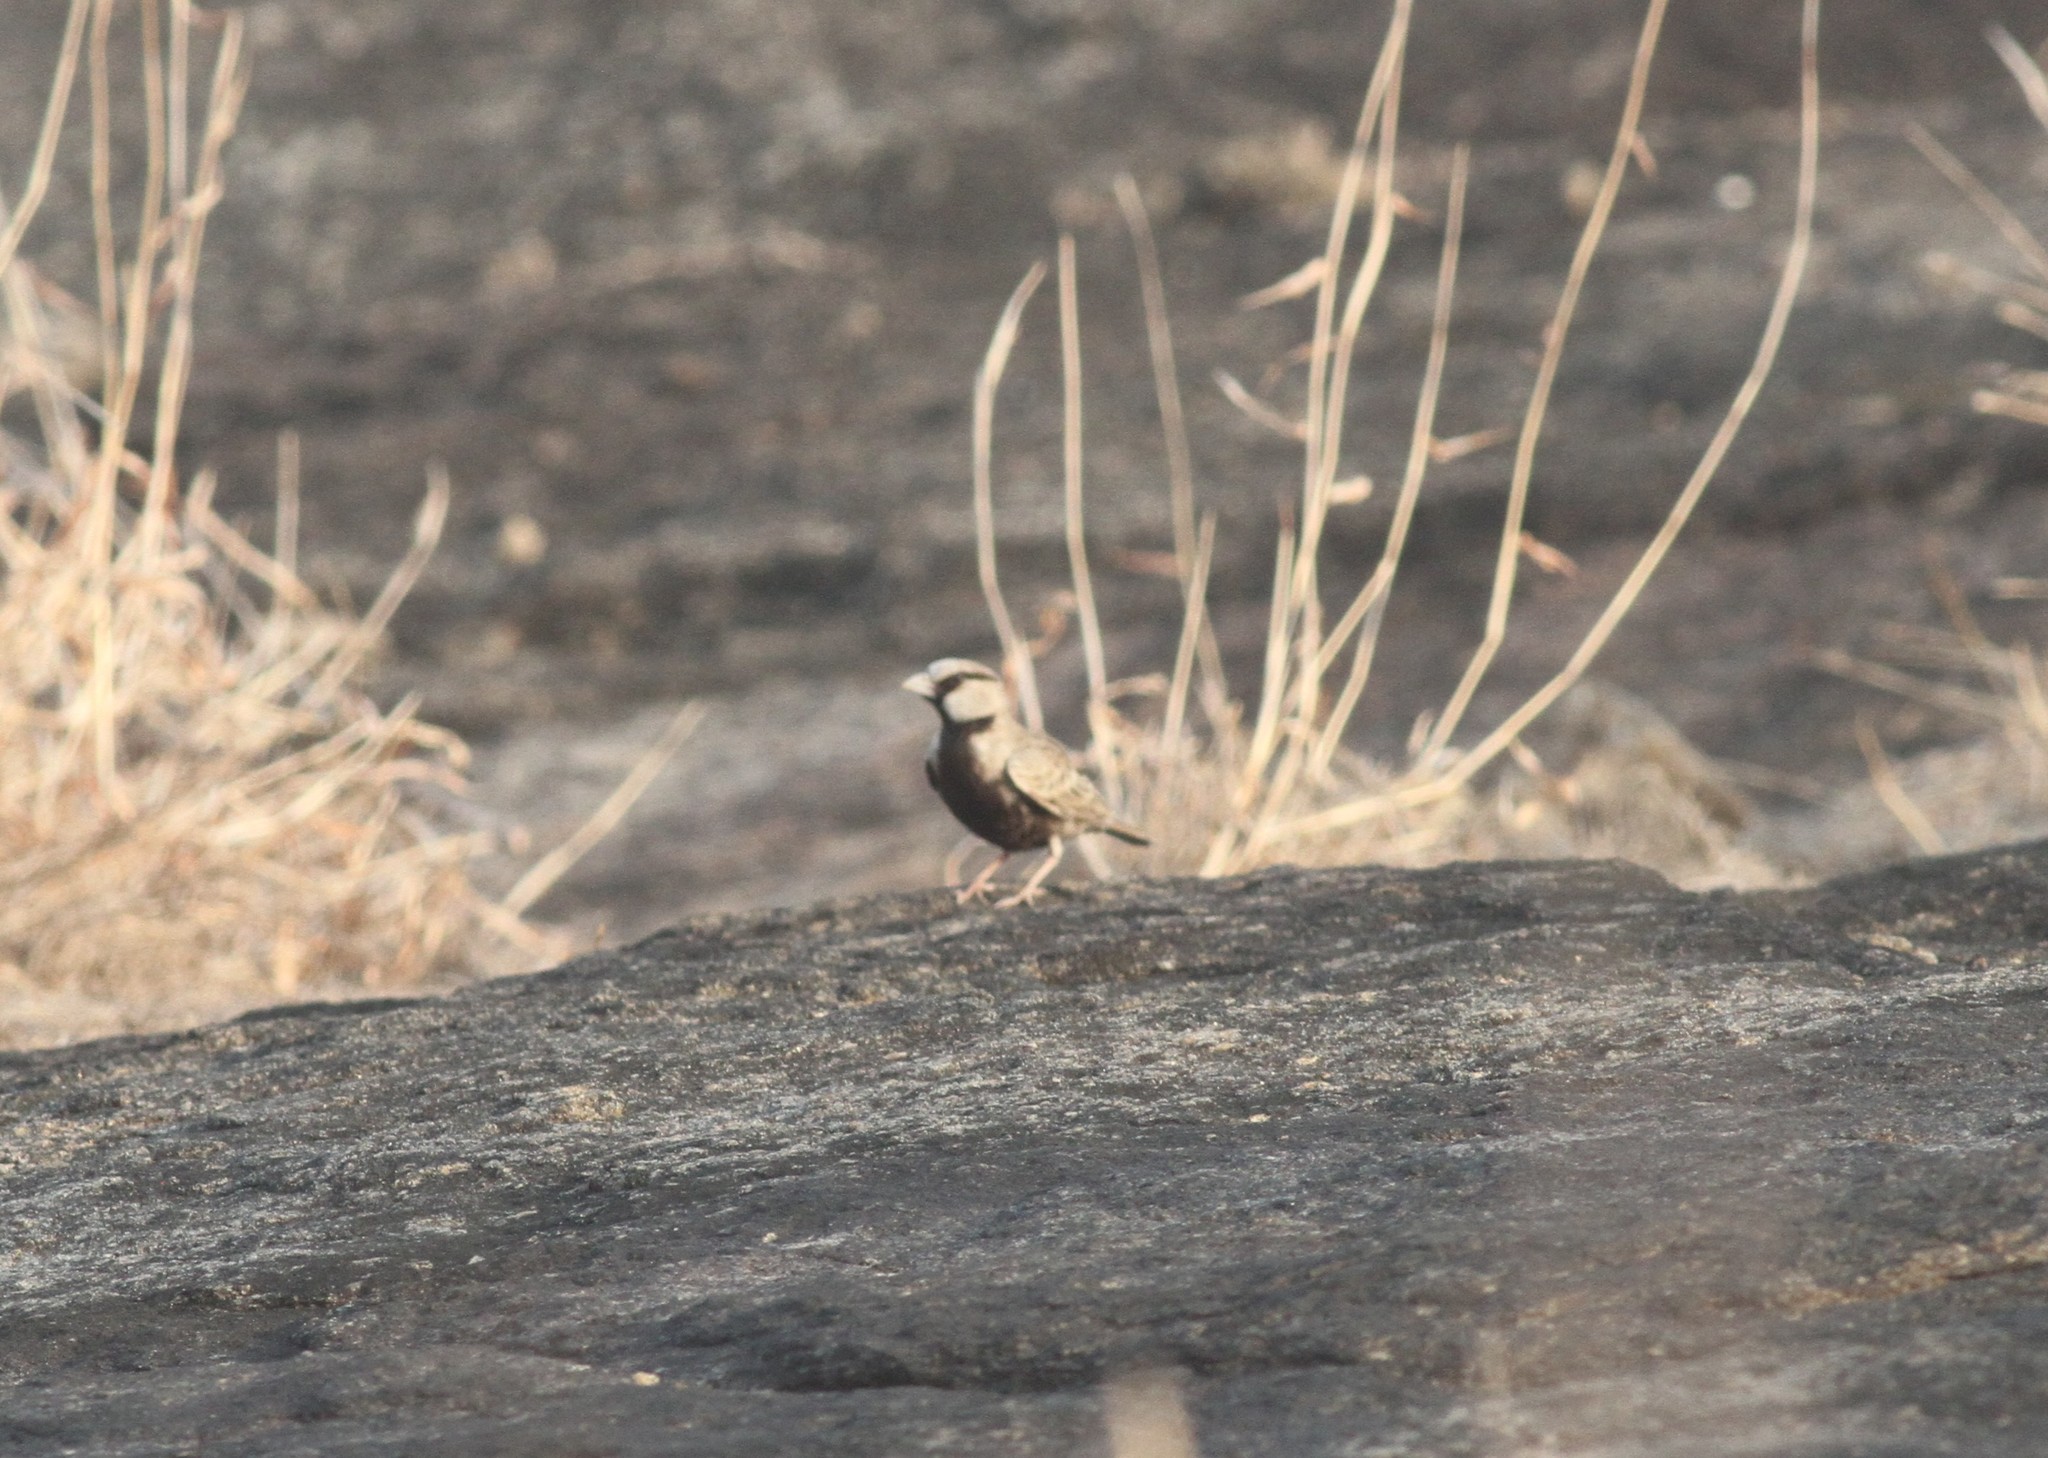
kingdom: Animalia
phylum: Chordata
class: Aves
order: Passeriformes
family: Alaudidae
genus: Eremopterix
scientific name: Eremopterix griseus
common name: Ashy-crowned sparrow-lark
